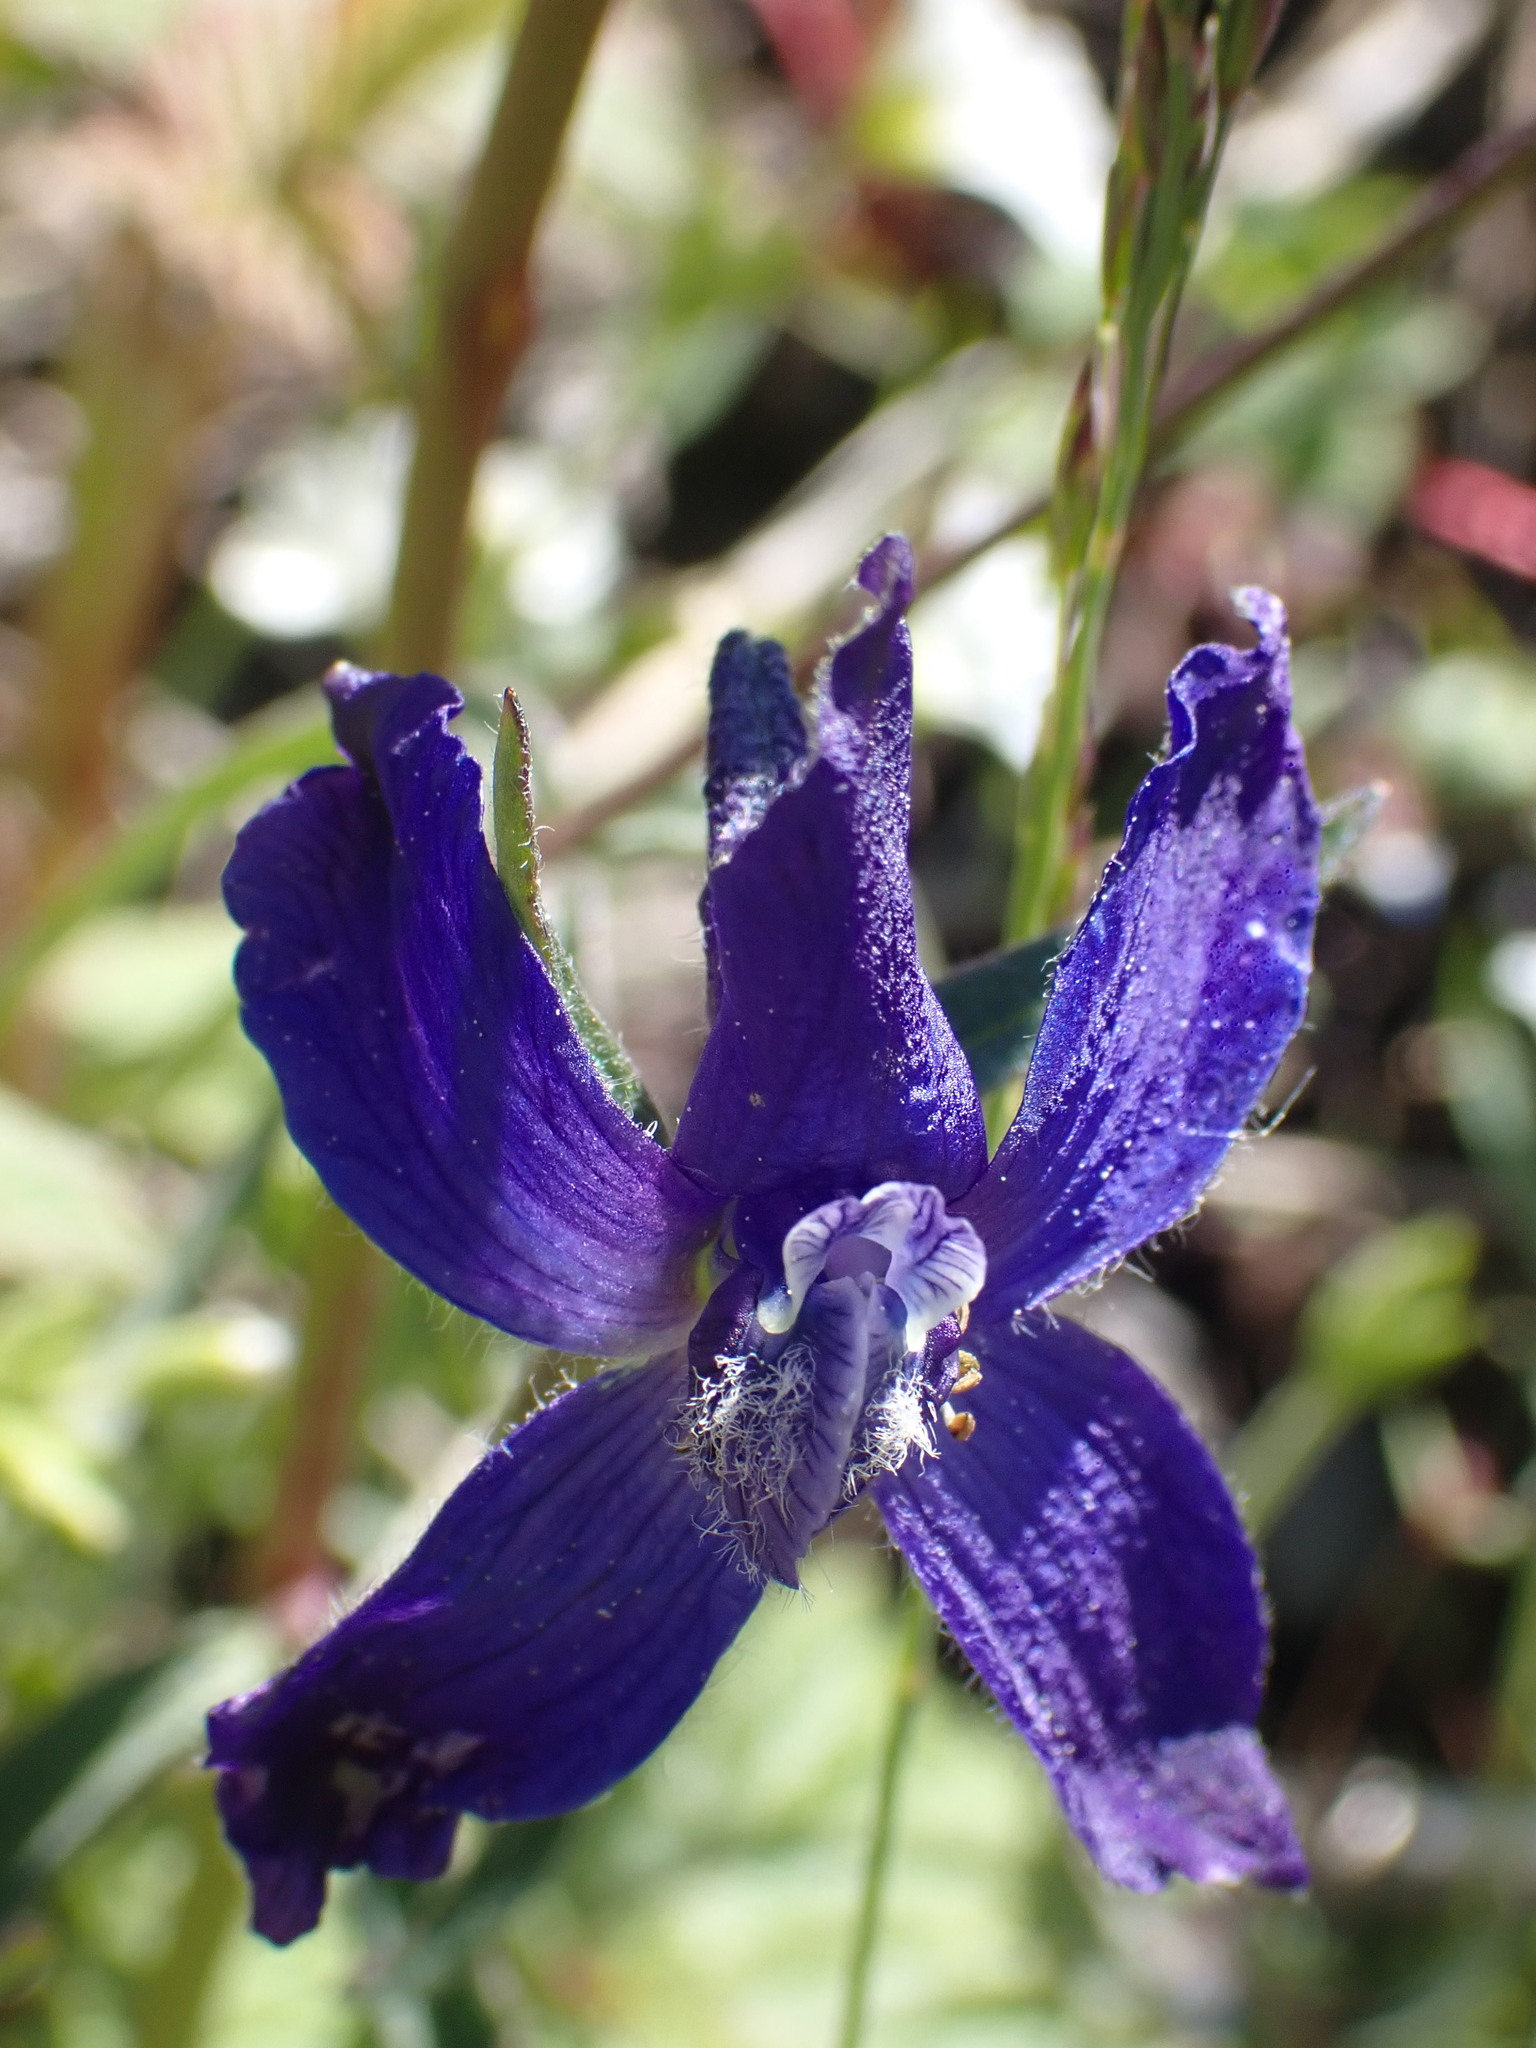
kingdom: Plantae
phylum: Tracheophyta
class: Magnoliopsida
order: Ranunculales
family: Ranunculaceae
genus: Delphinium
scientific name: Delphinium nuttallianum
